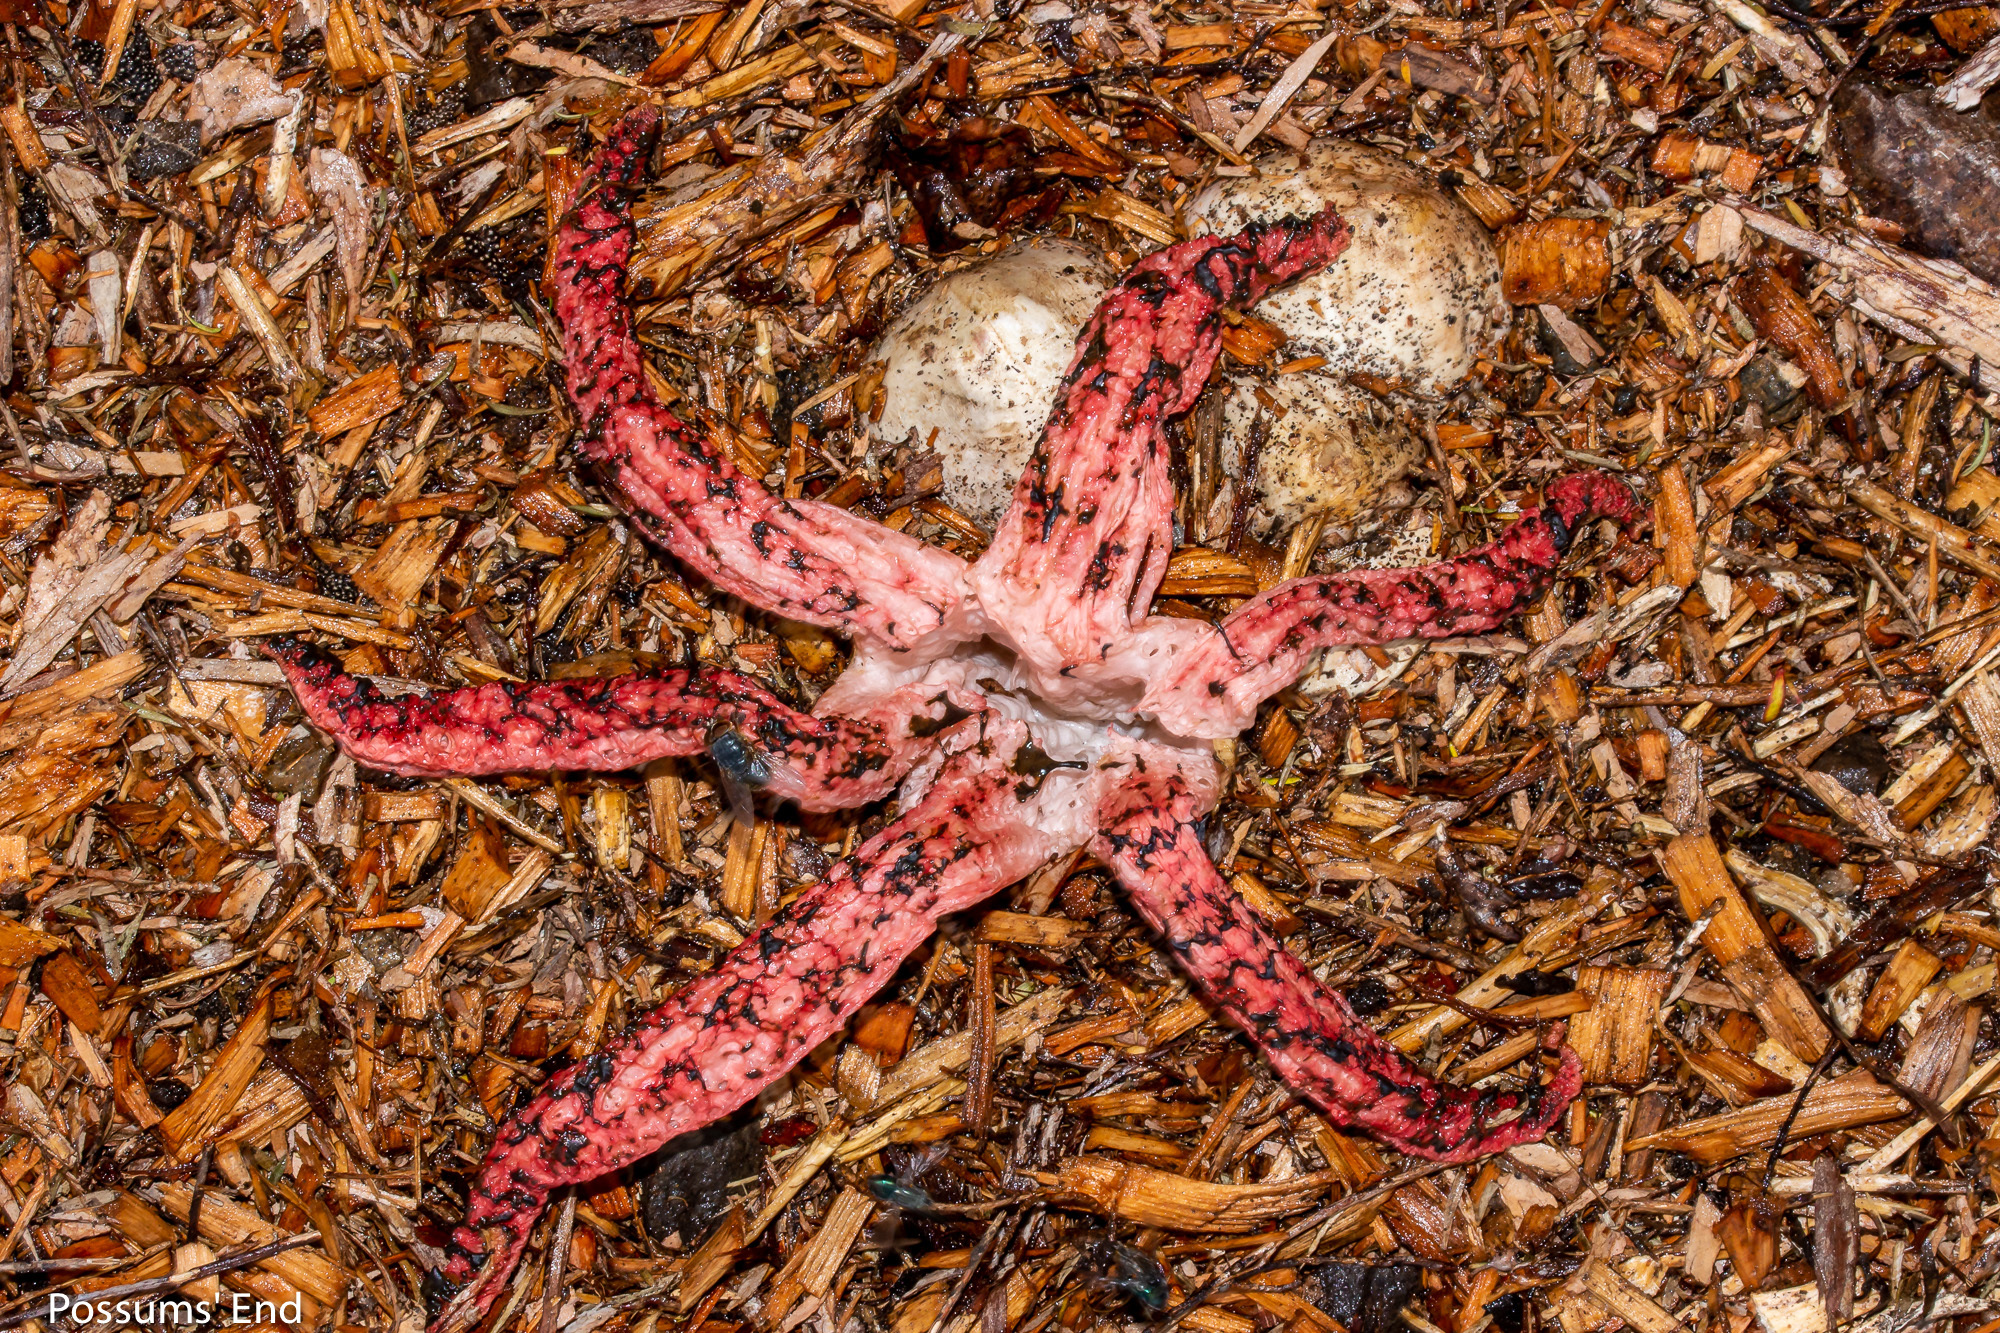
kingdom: Fungi
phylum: Basidiomycota
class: Agaricomycetes
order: Phallales
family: Phallaceae
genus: Clathrus
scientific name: Clathrus archeri
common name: Devil's fingers
